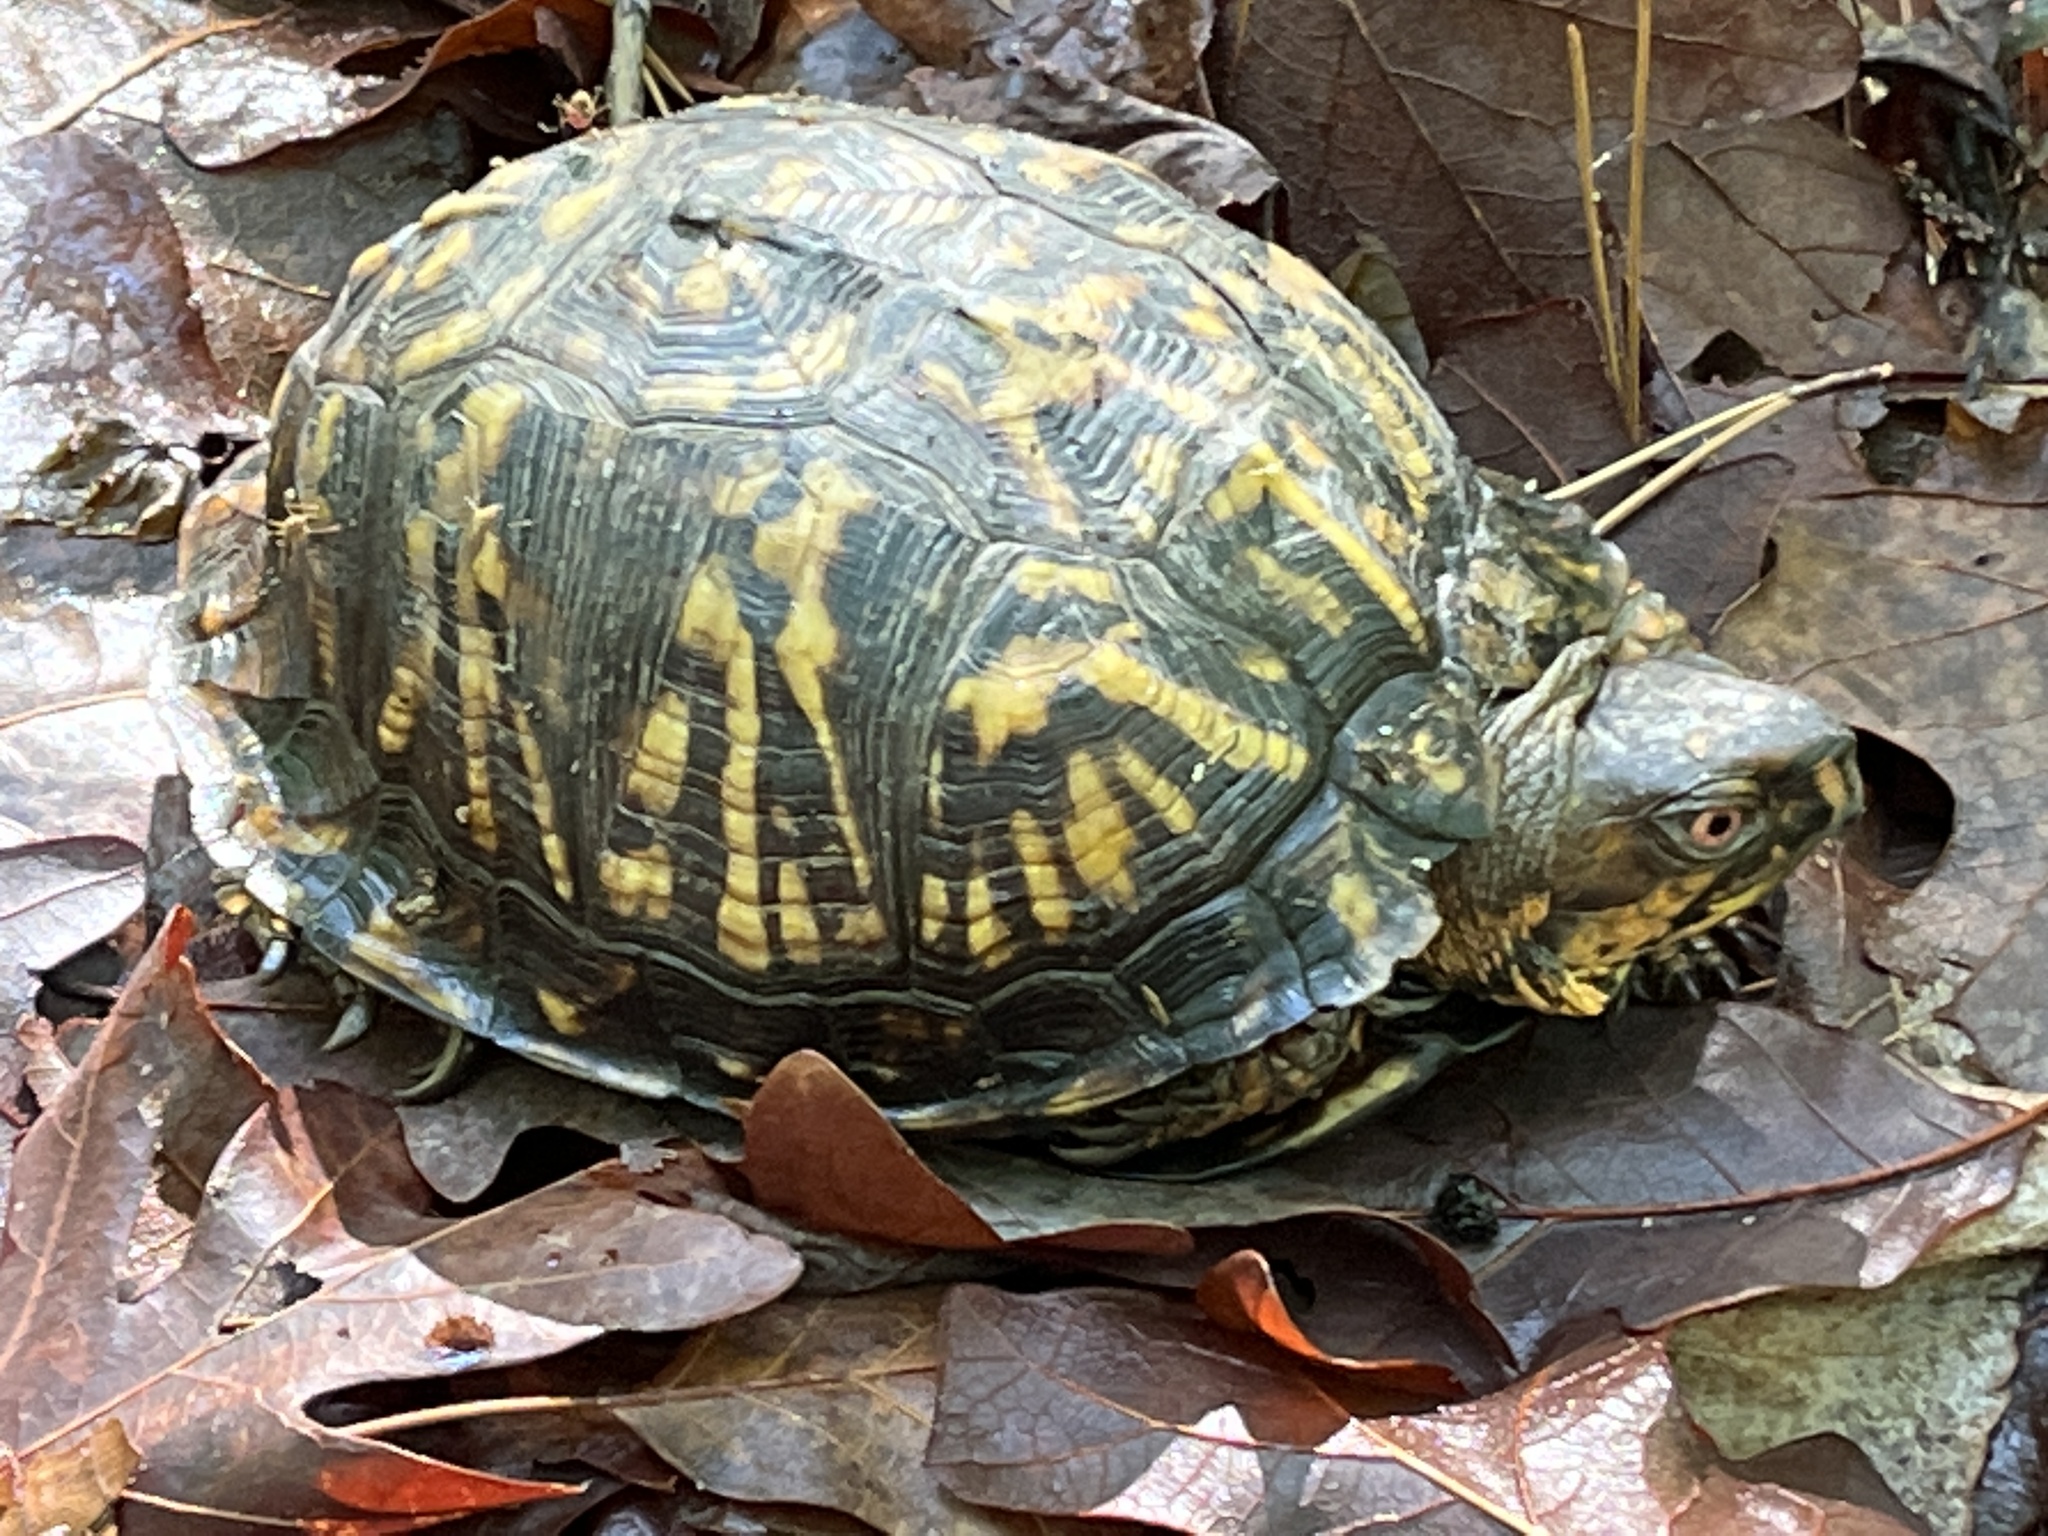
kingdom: Animalia
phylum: Chordata
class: Testudines
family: Emydidae
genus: Terrapene
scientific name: Terrapene carolina
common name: Common box turtle
